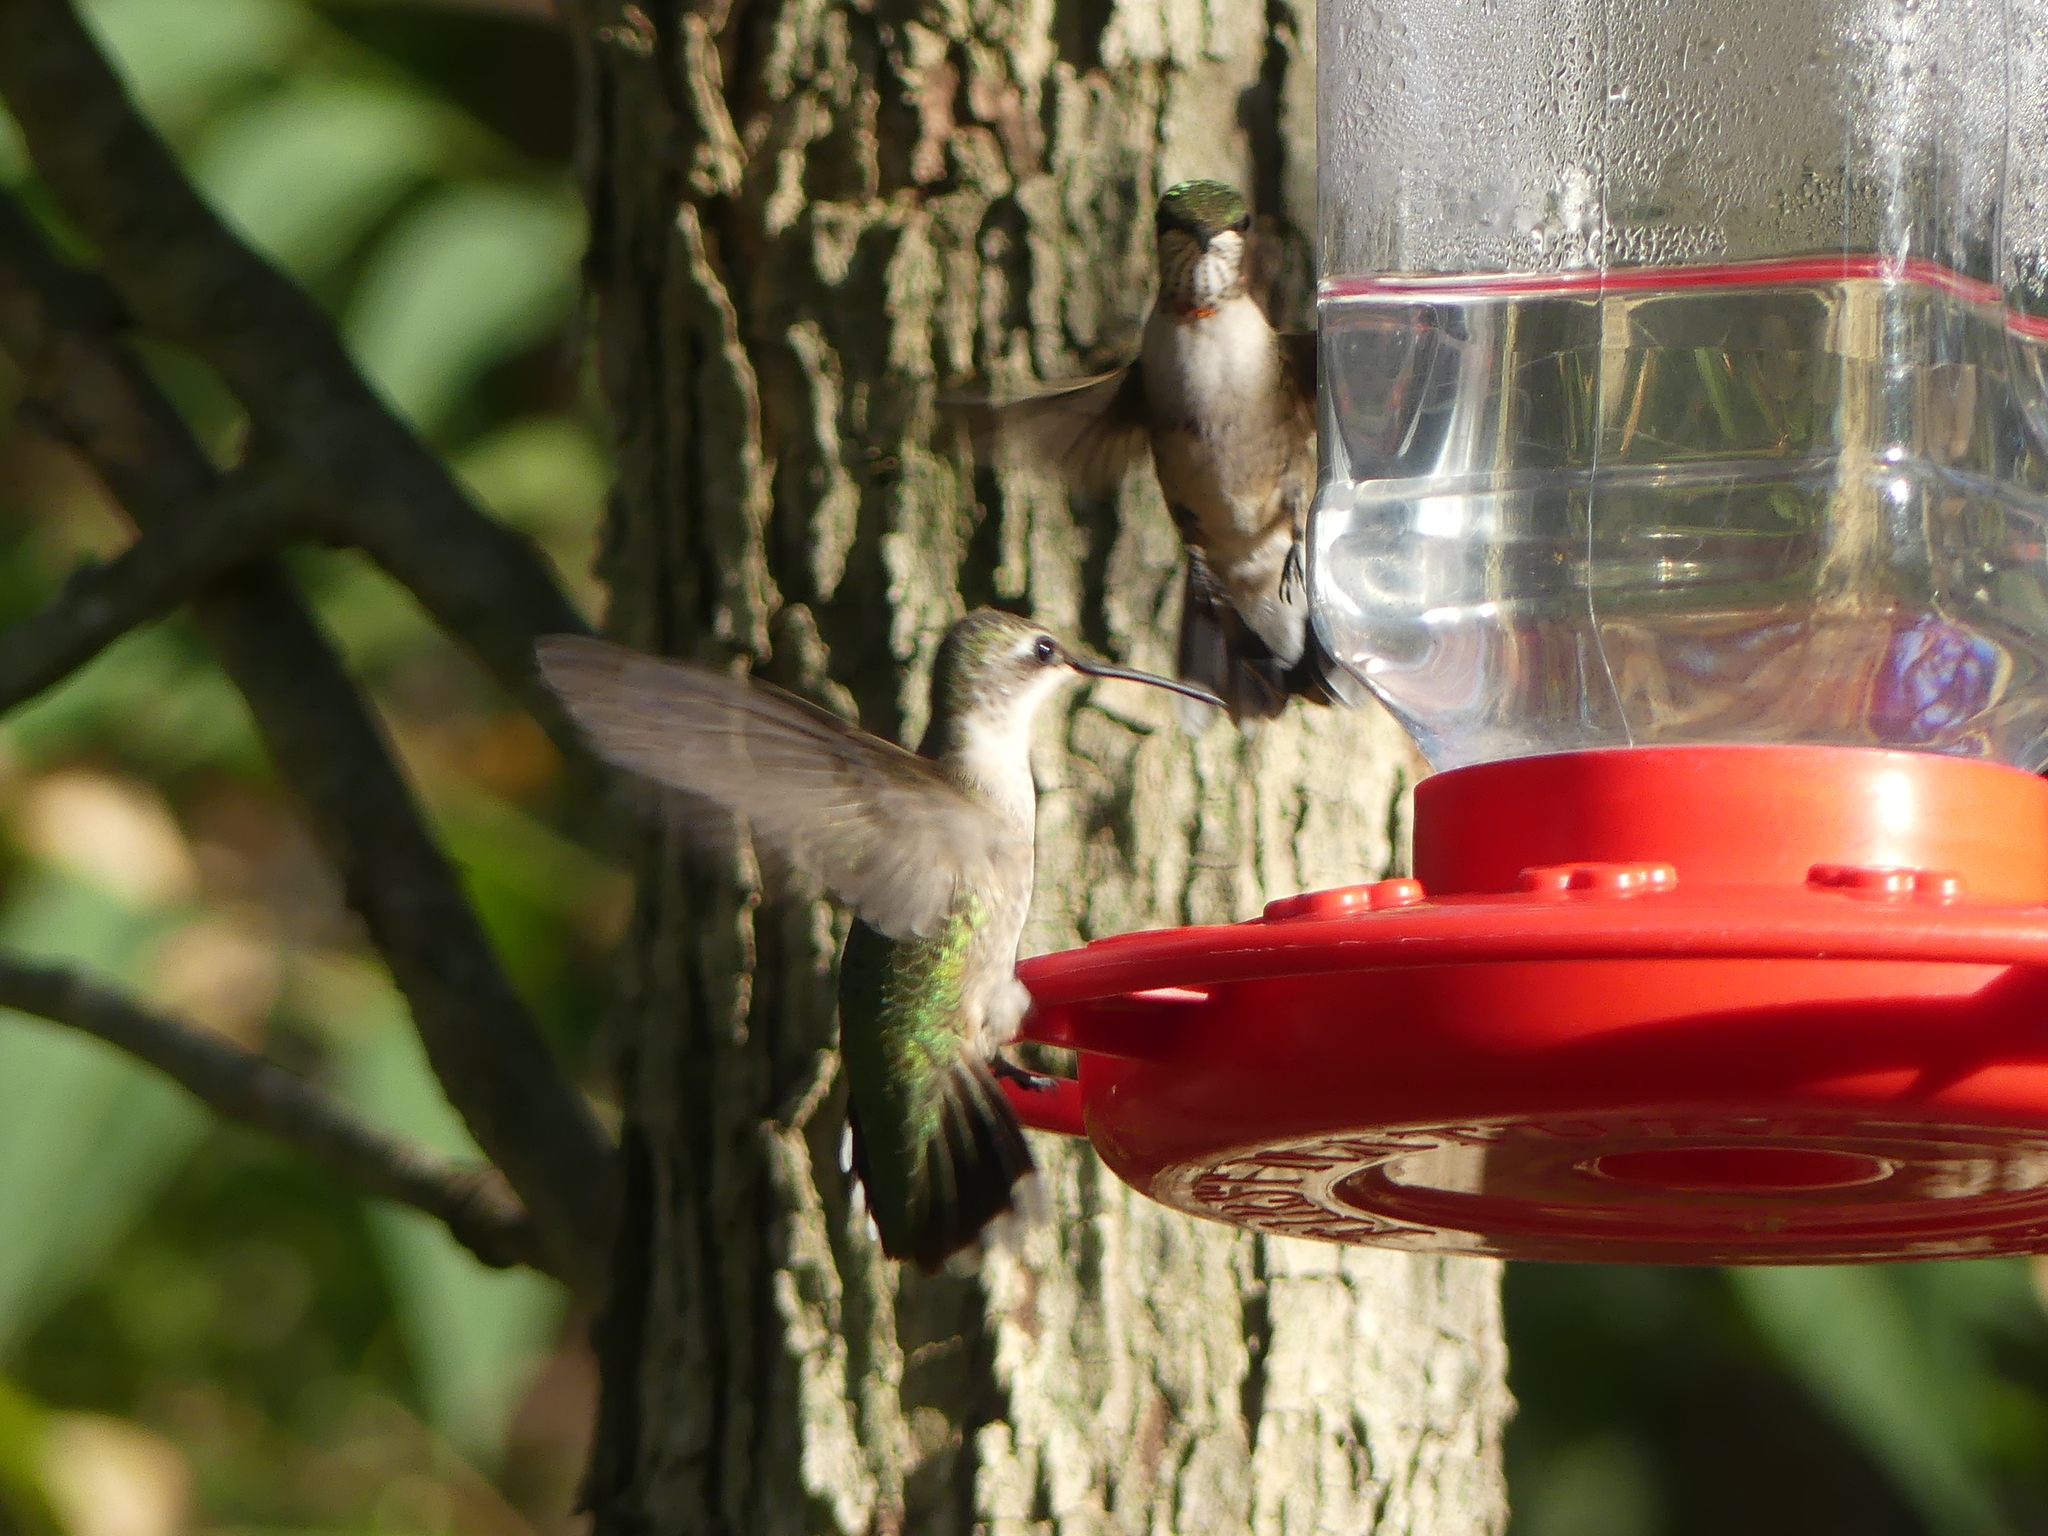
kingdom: Animalia
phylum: Chordata
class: Aves
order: Apodiformes
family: Trochilidae
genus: Archilochus
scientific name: Archilochus colubris
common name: Ruby-throated hummingbird
